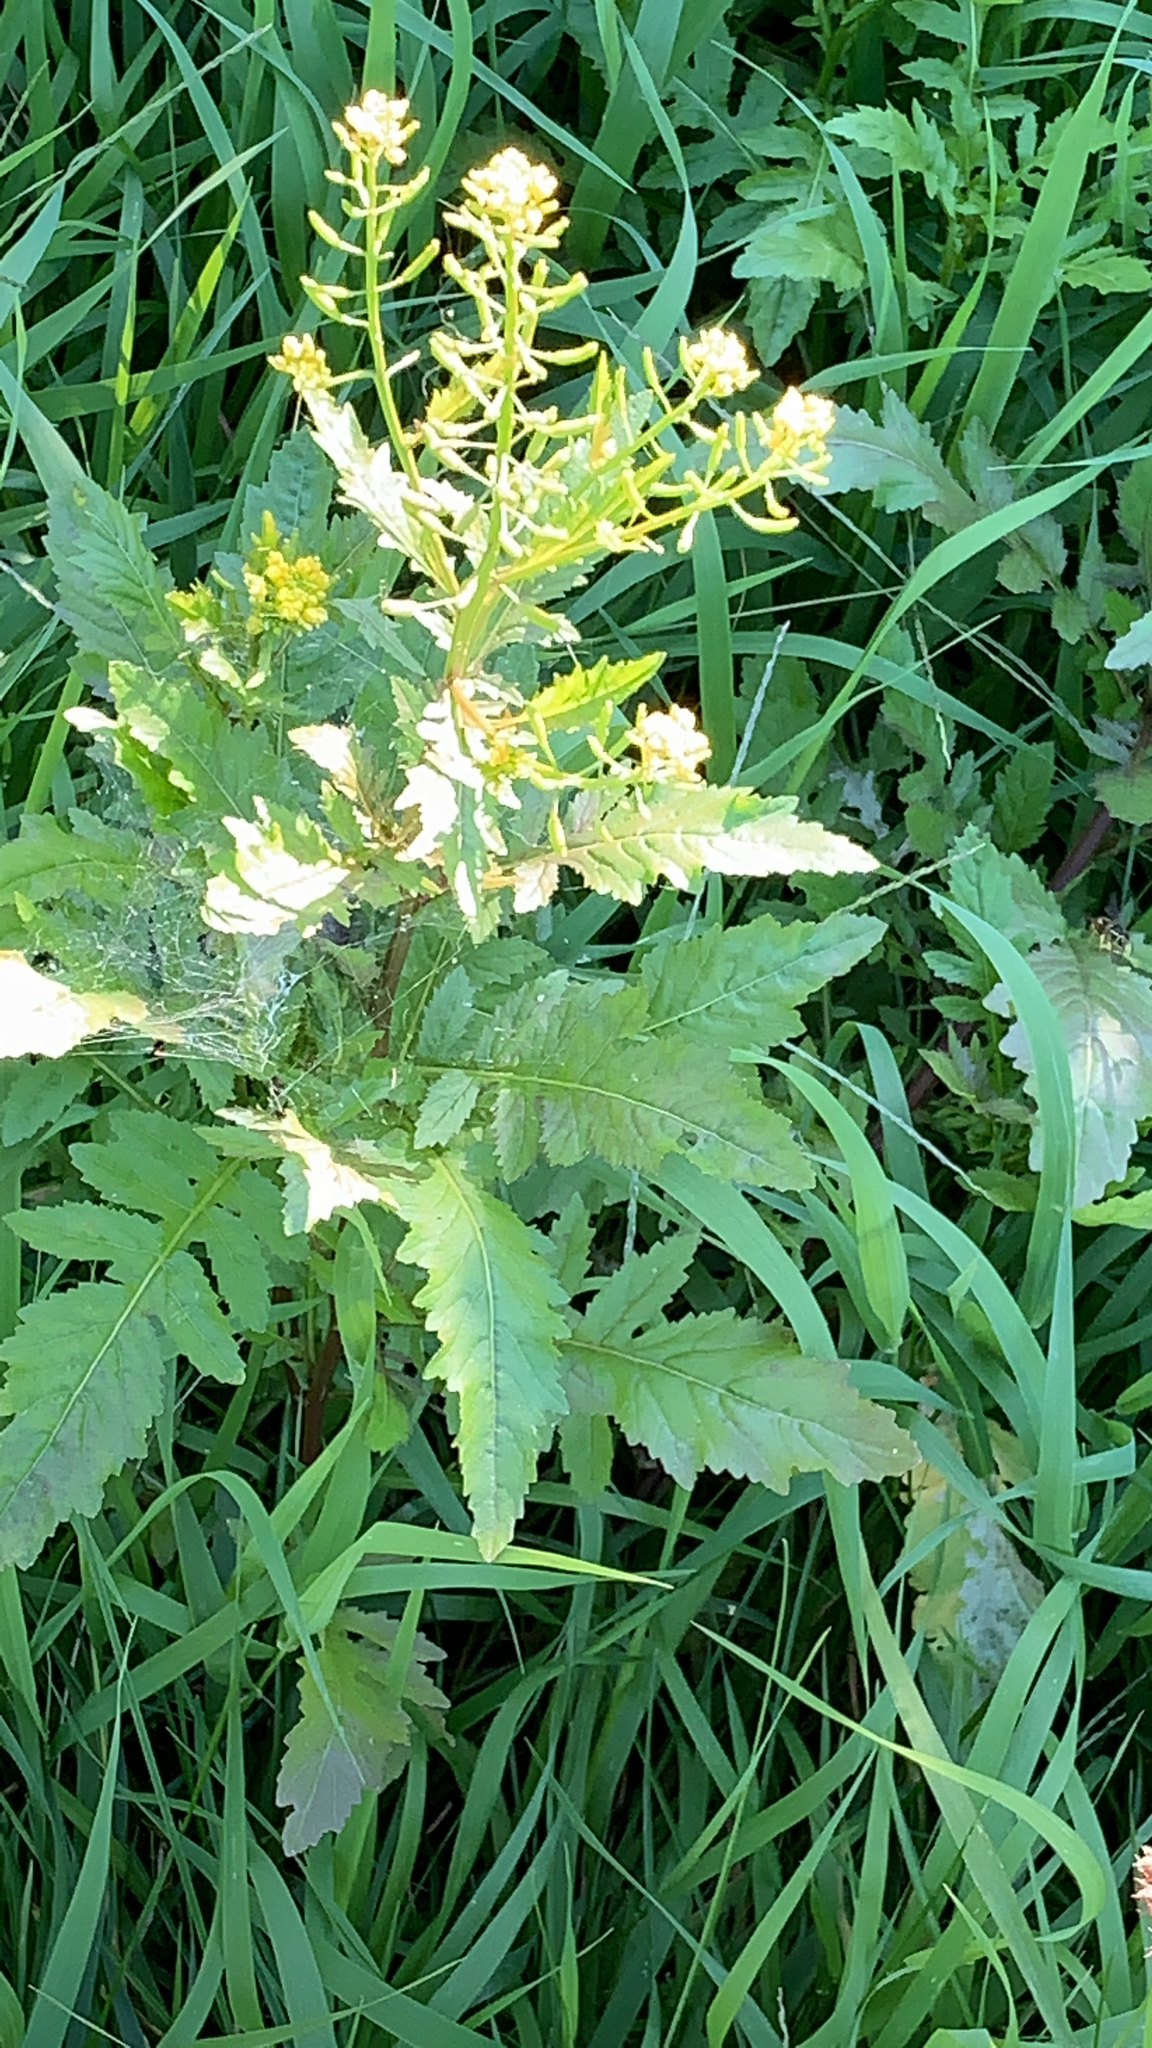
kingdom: Plantae
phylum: Tracheophyta
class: Magnoliopsida
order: Brassicales
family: Brassicaceae
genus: Rorippa
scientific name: Rorippa palustris
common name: Marsh yellow-cress
